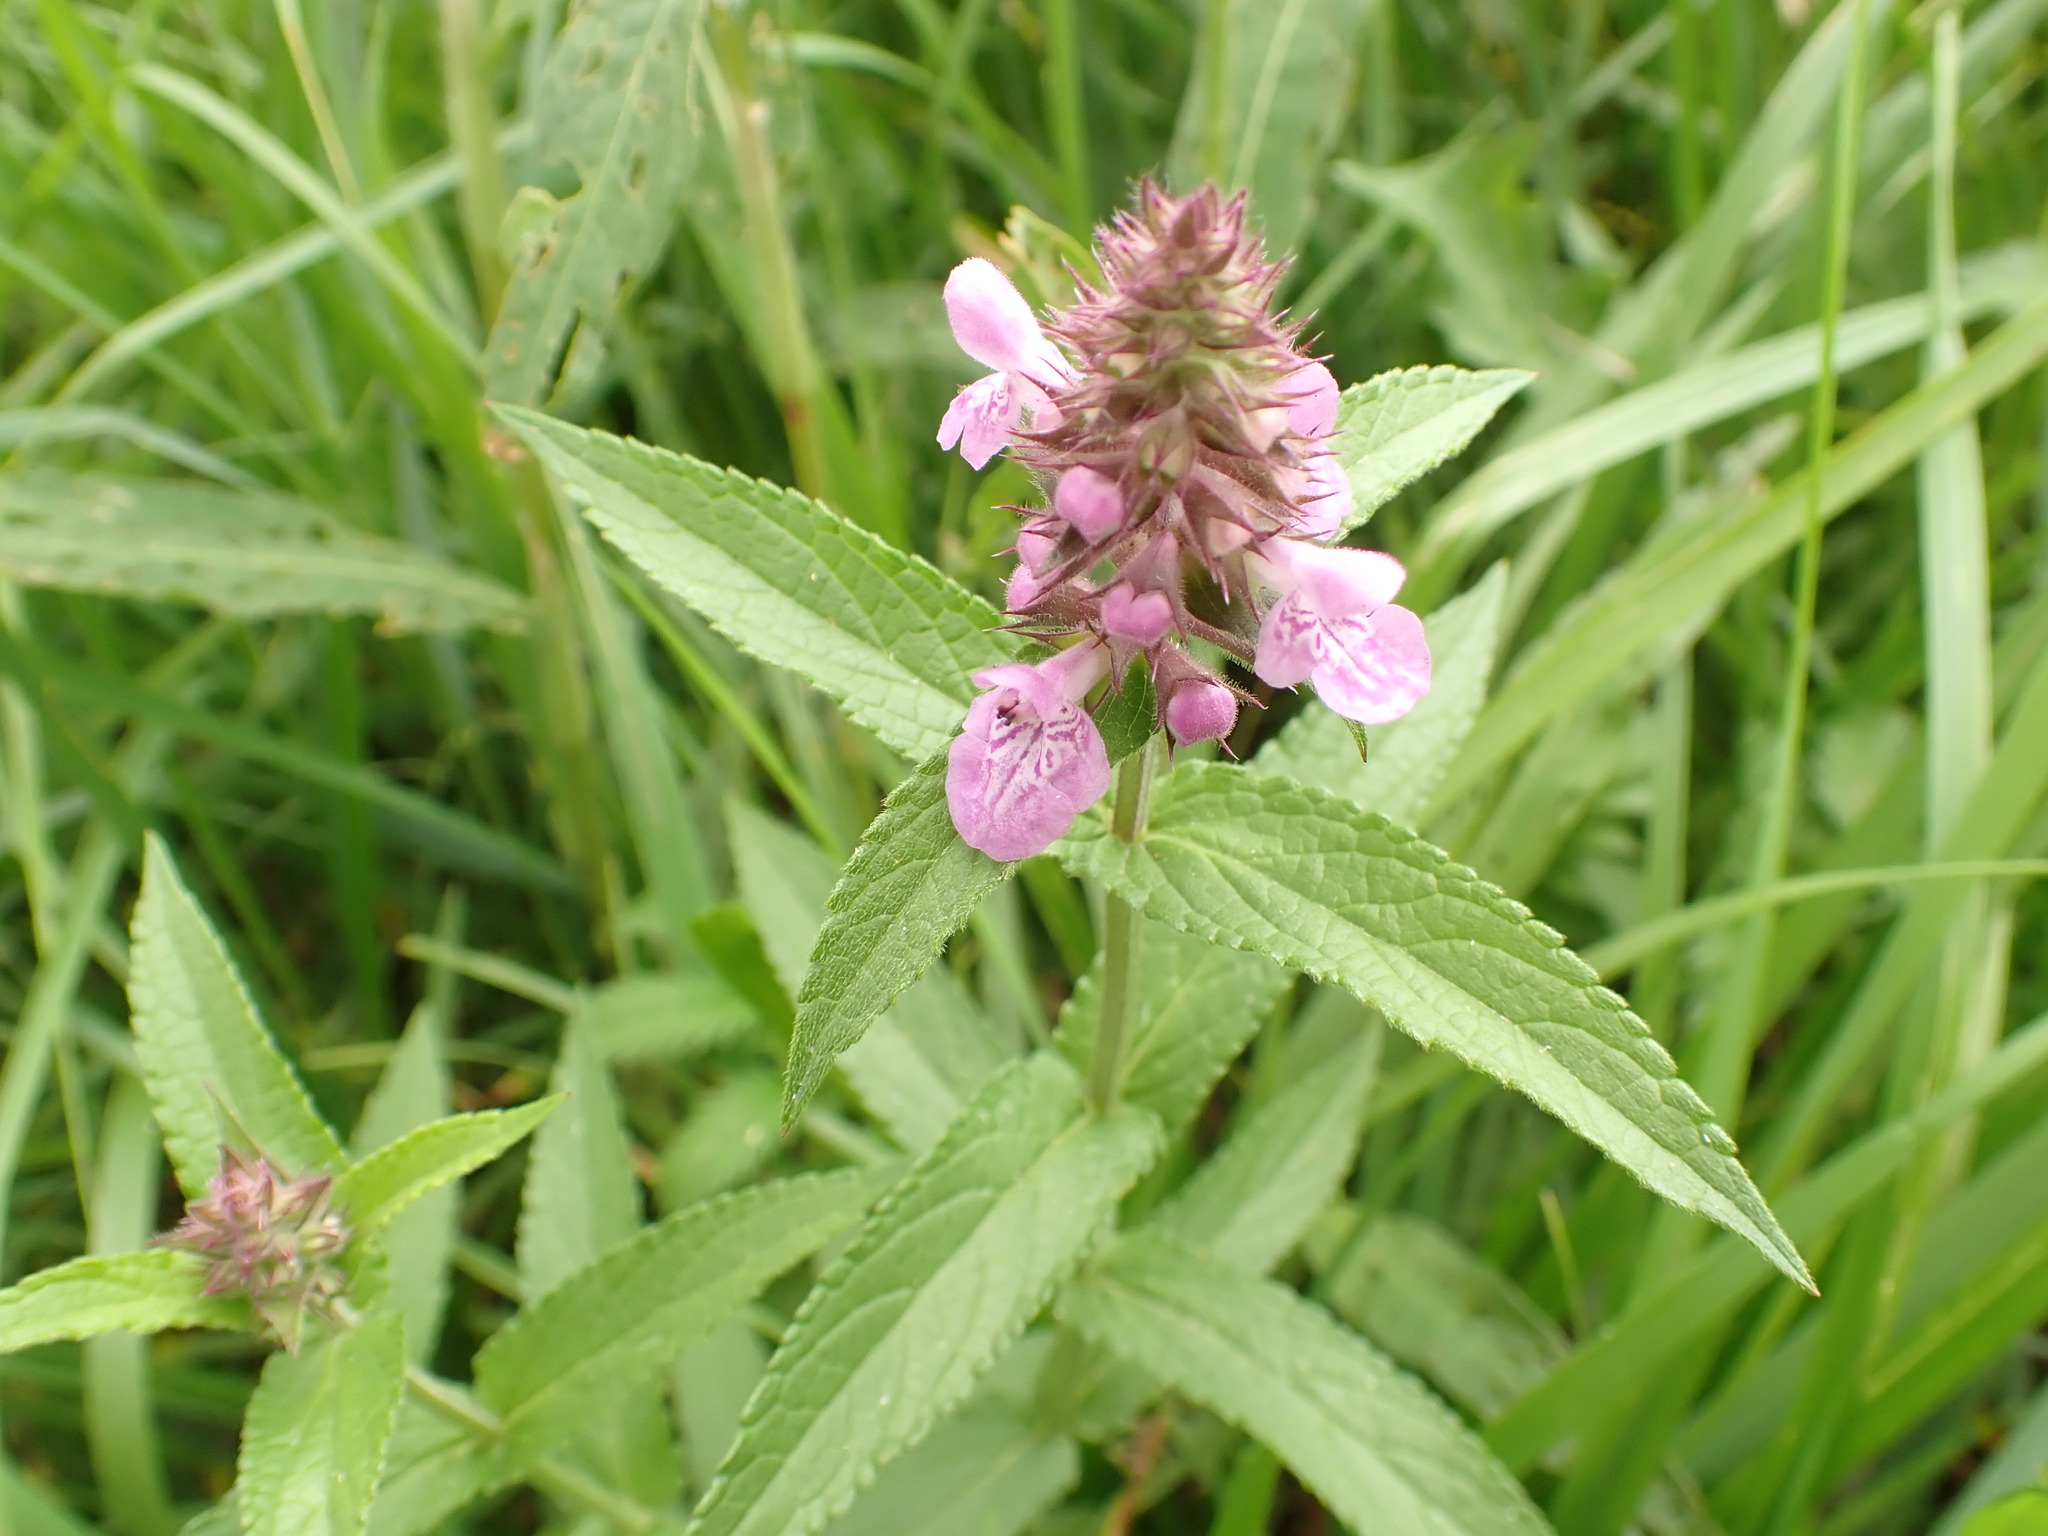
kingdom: Plantae
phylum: Tracheophyta
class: Magnoliopsida
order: Lamiales
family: Lamiaceae
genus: Stachys
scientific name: Stachys palustris
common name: Marsh woundwort
